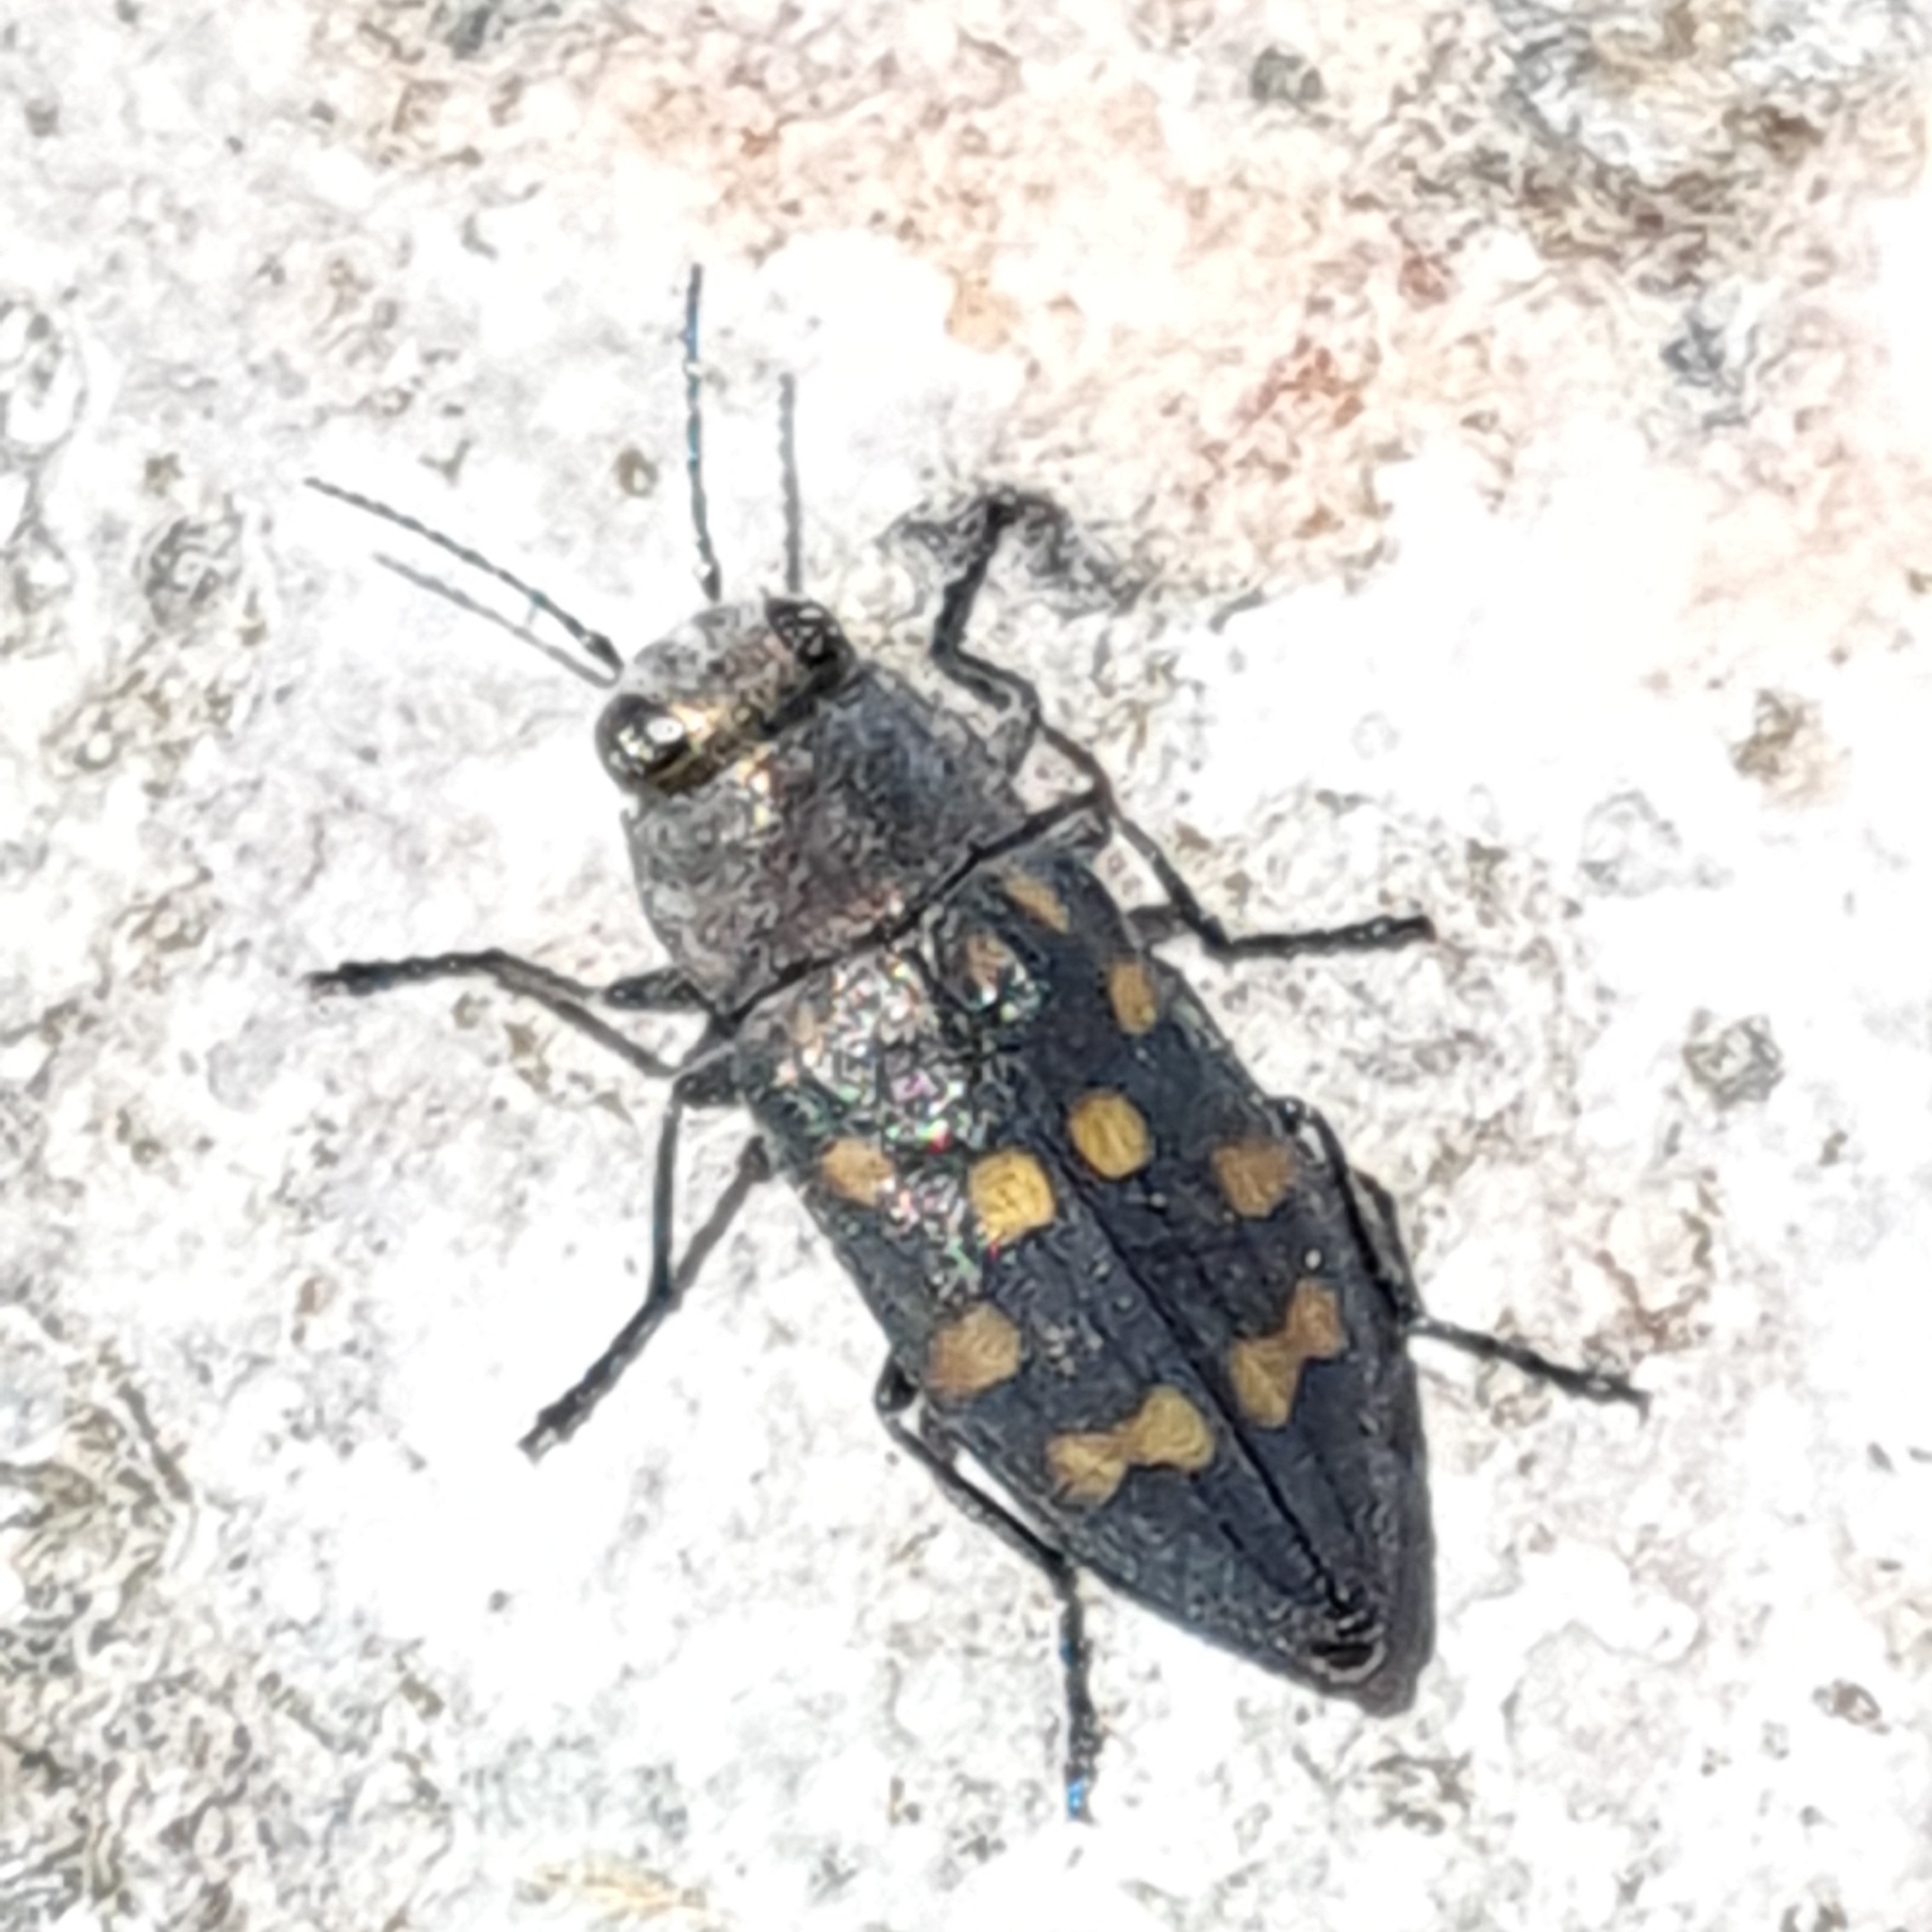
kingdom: Animalia
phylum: Arthropoda
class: Insecta
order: Coleoptera
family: Buprestidae
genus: Trachypteris
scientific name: Trachypteris picta
